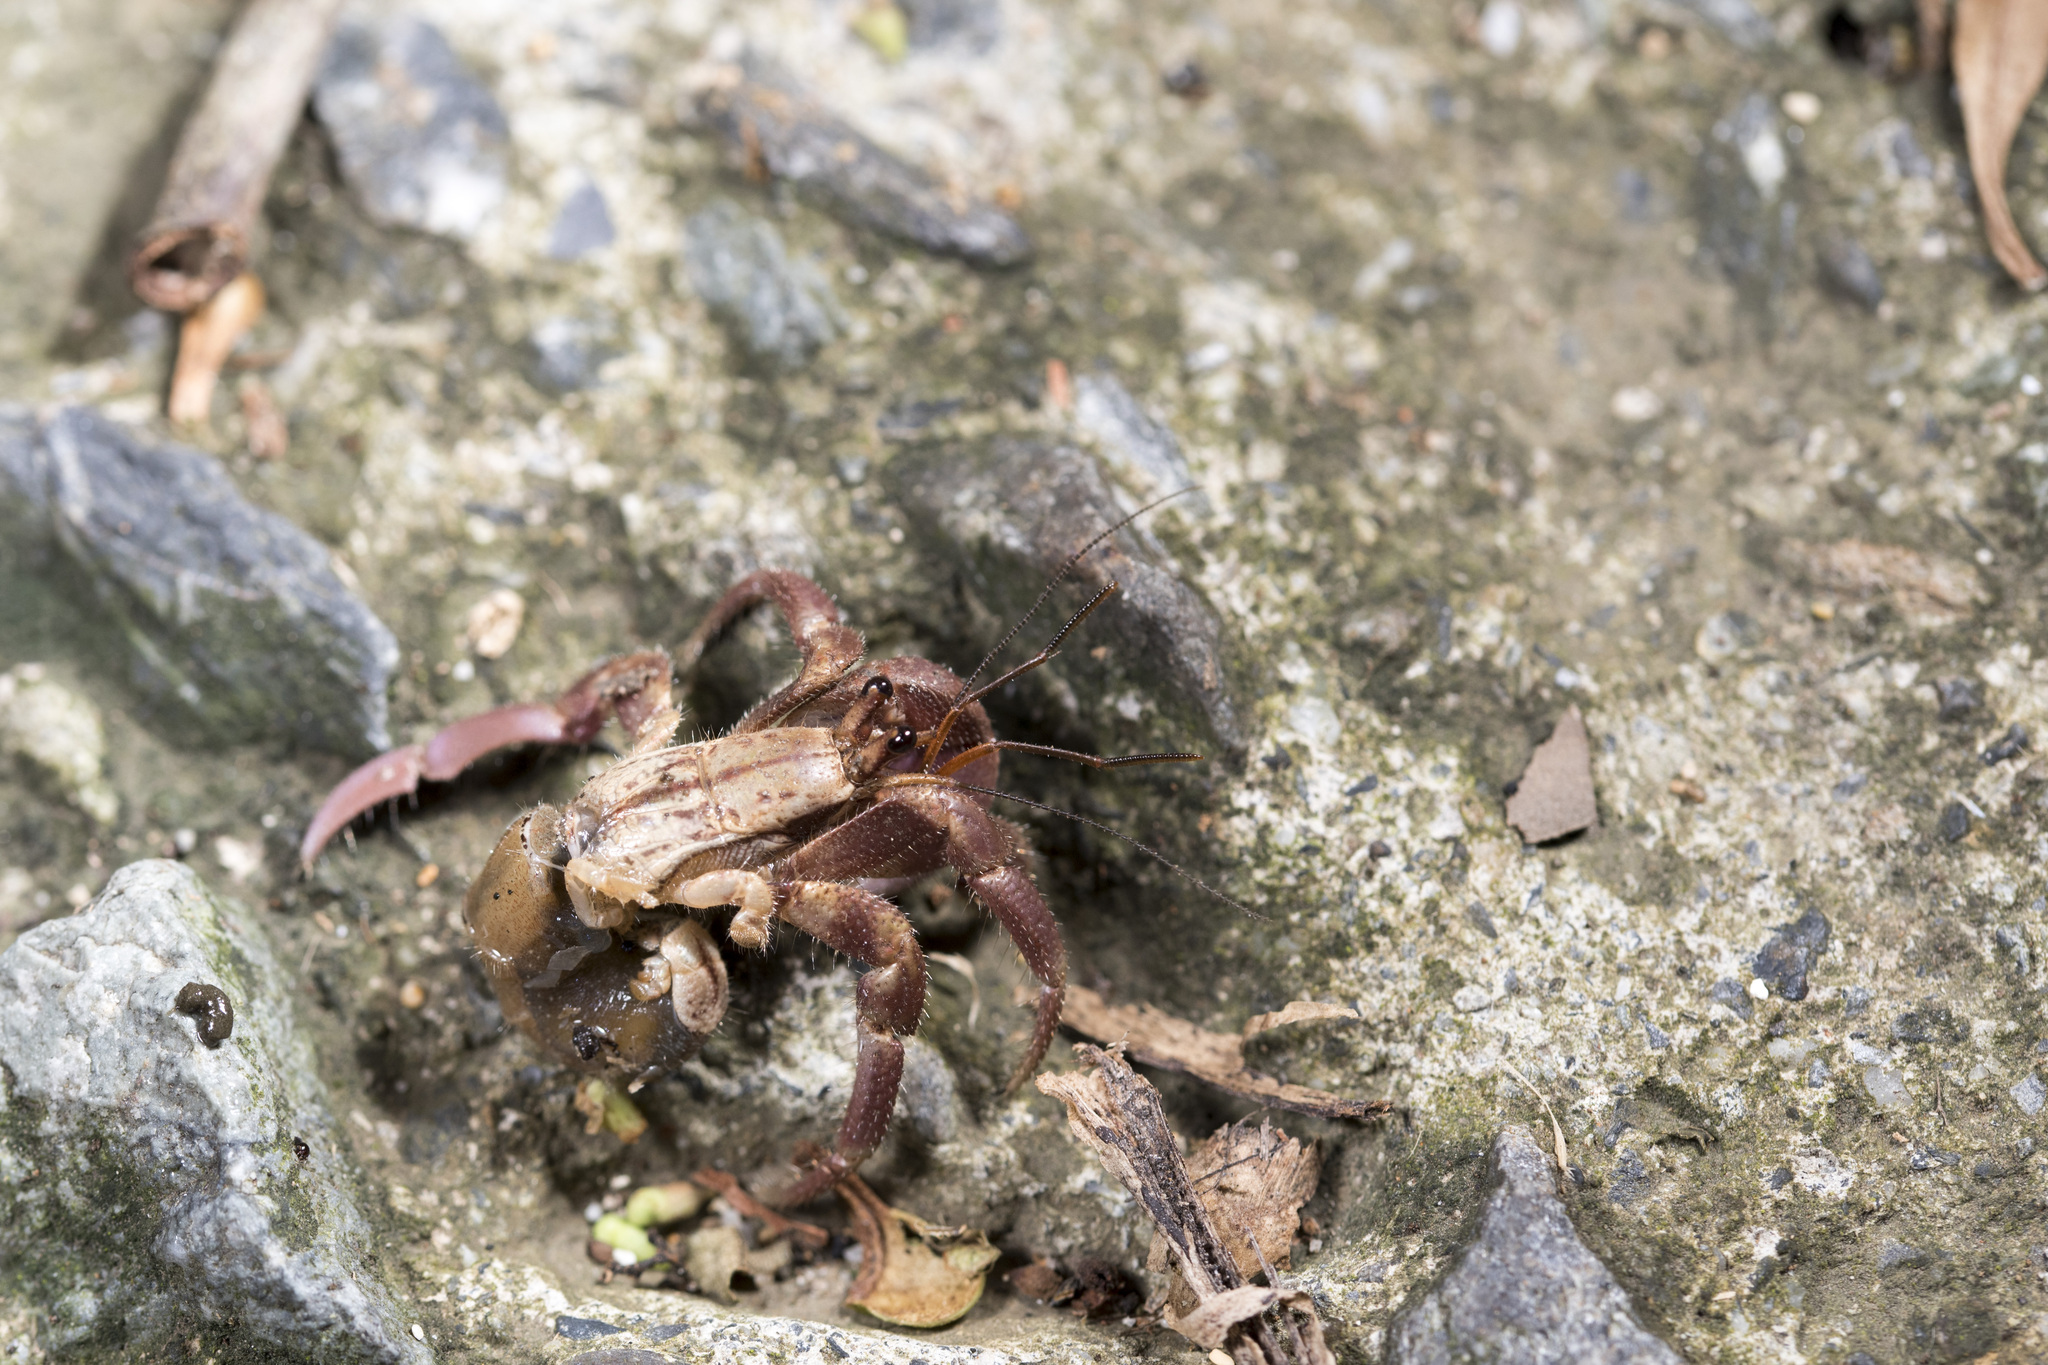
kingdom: Animalia
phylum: Arthropoda
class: Malacostraca
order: Decapoda
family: Coenobitidae
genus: Coenobita
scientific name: Coenobita brevimanus
